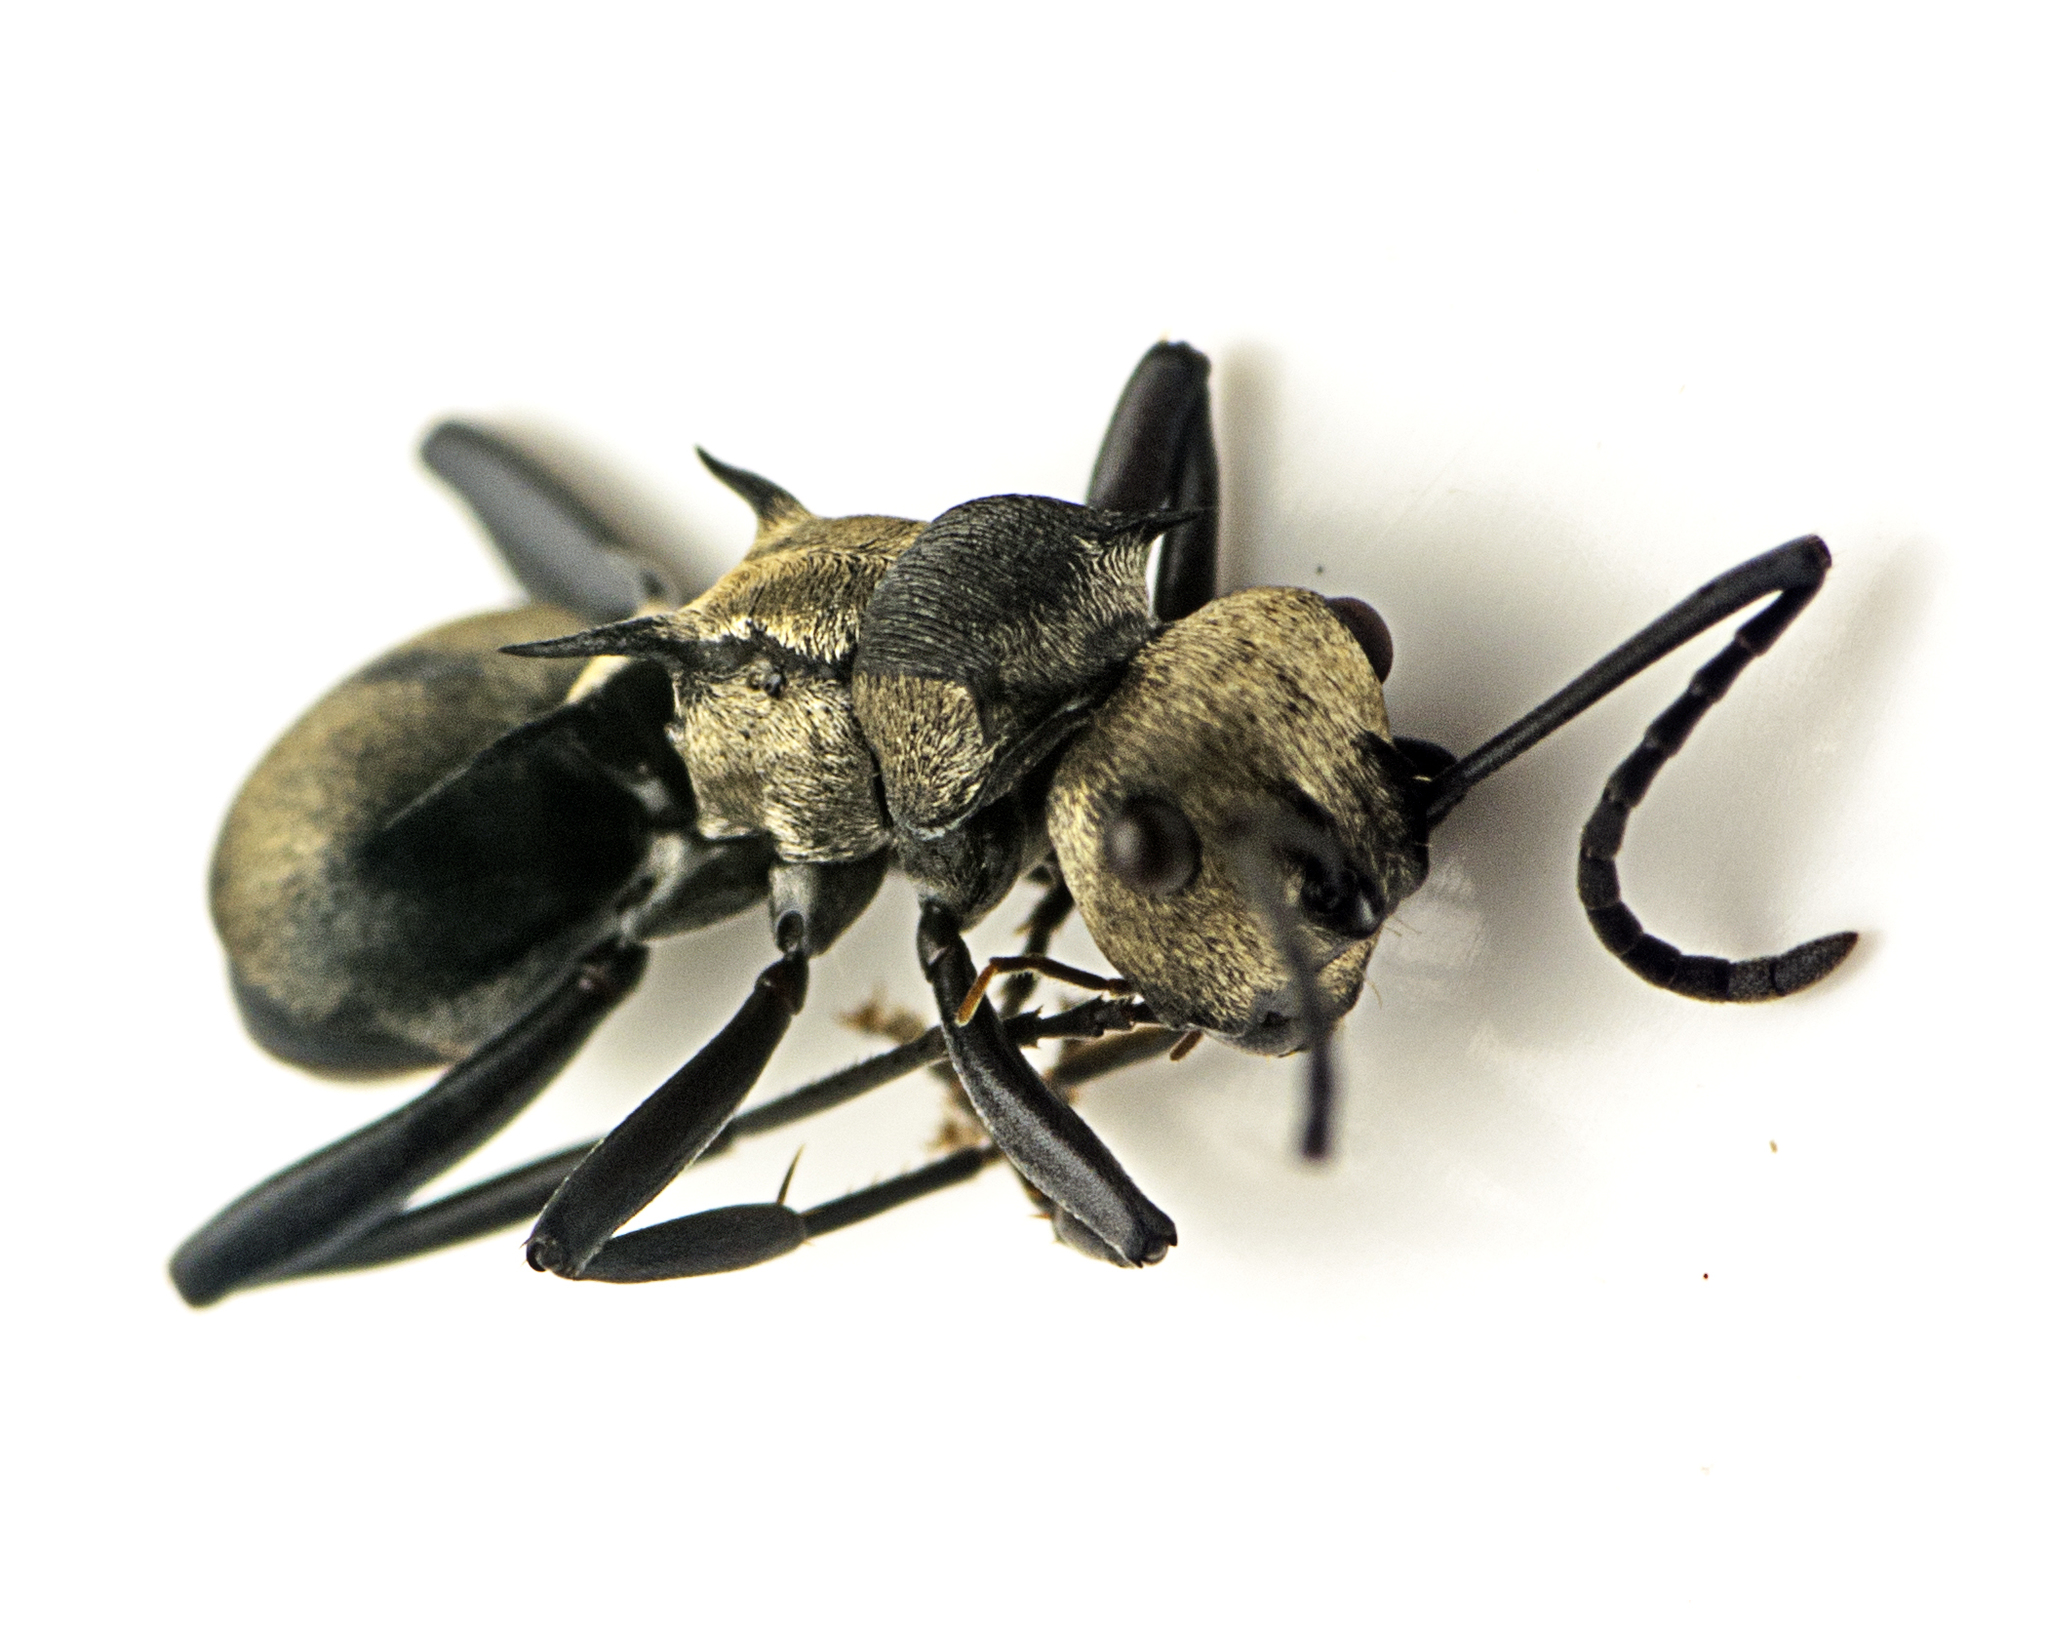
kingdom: Animalia
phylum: Arthropoda
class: Insecta
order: Hymenoptera
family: Formicidae
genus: Polyrhachis
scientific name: Polyrhachis daemeli
